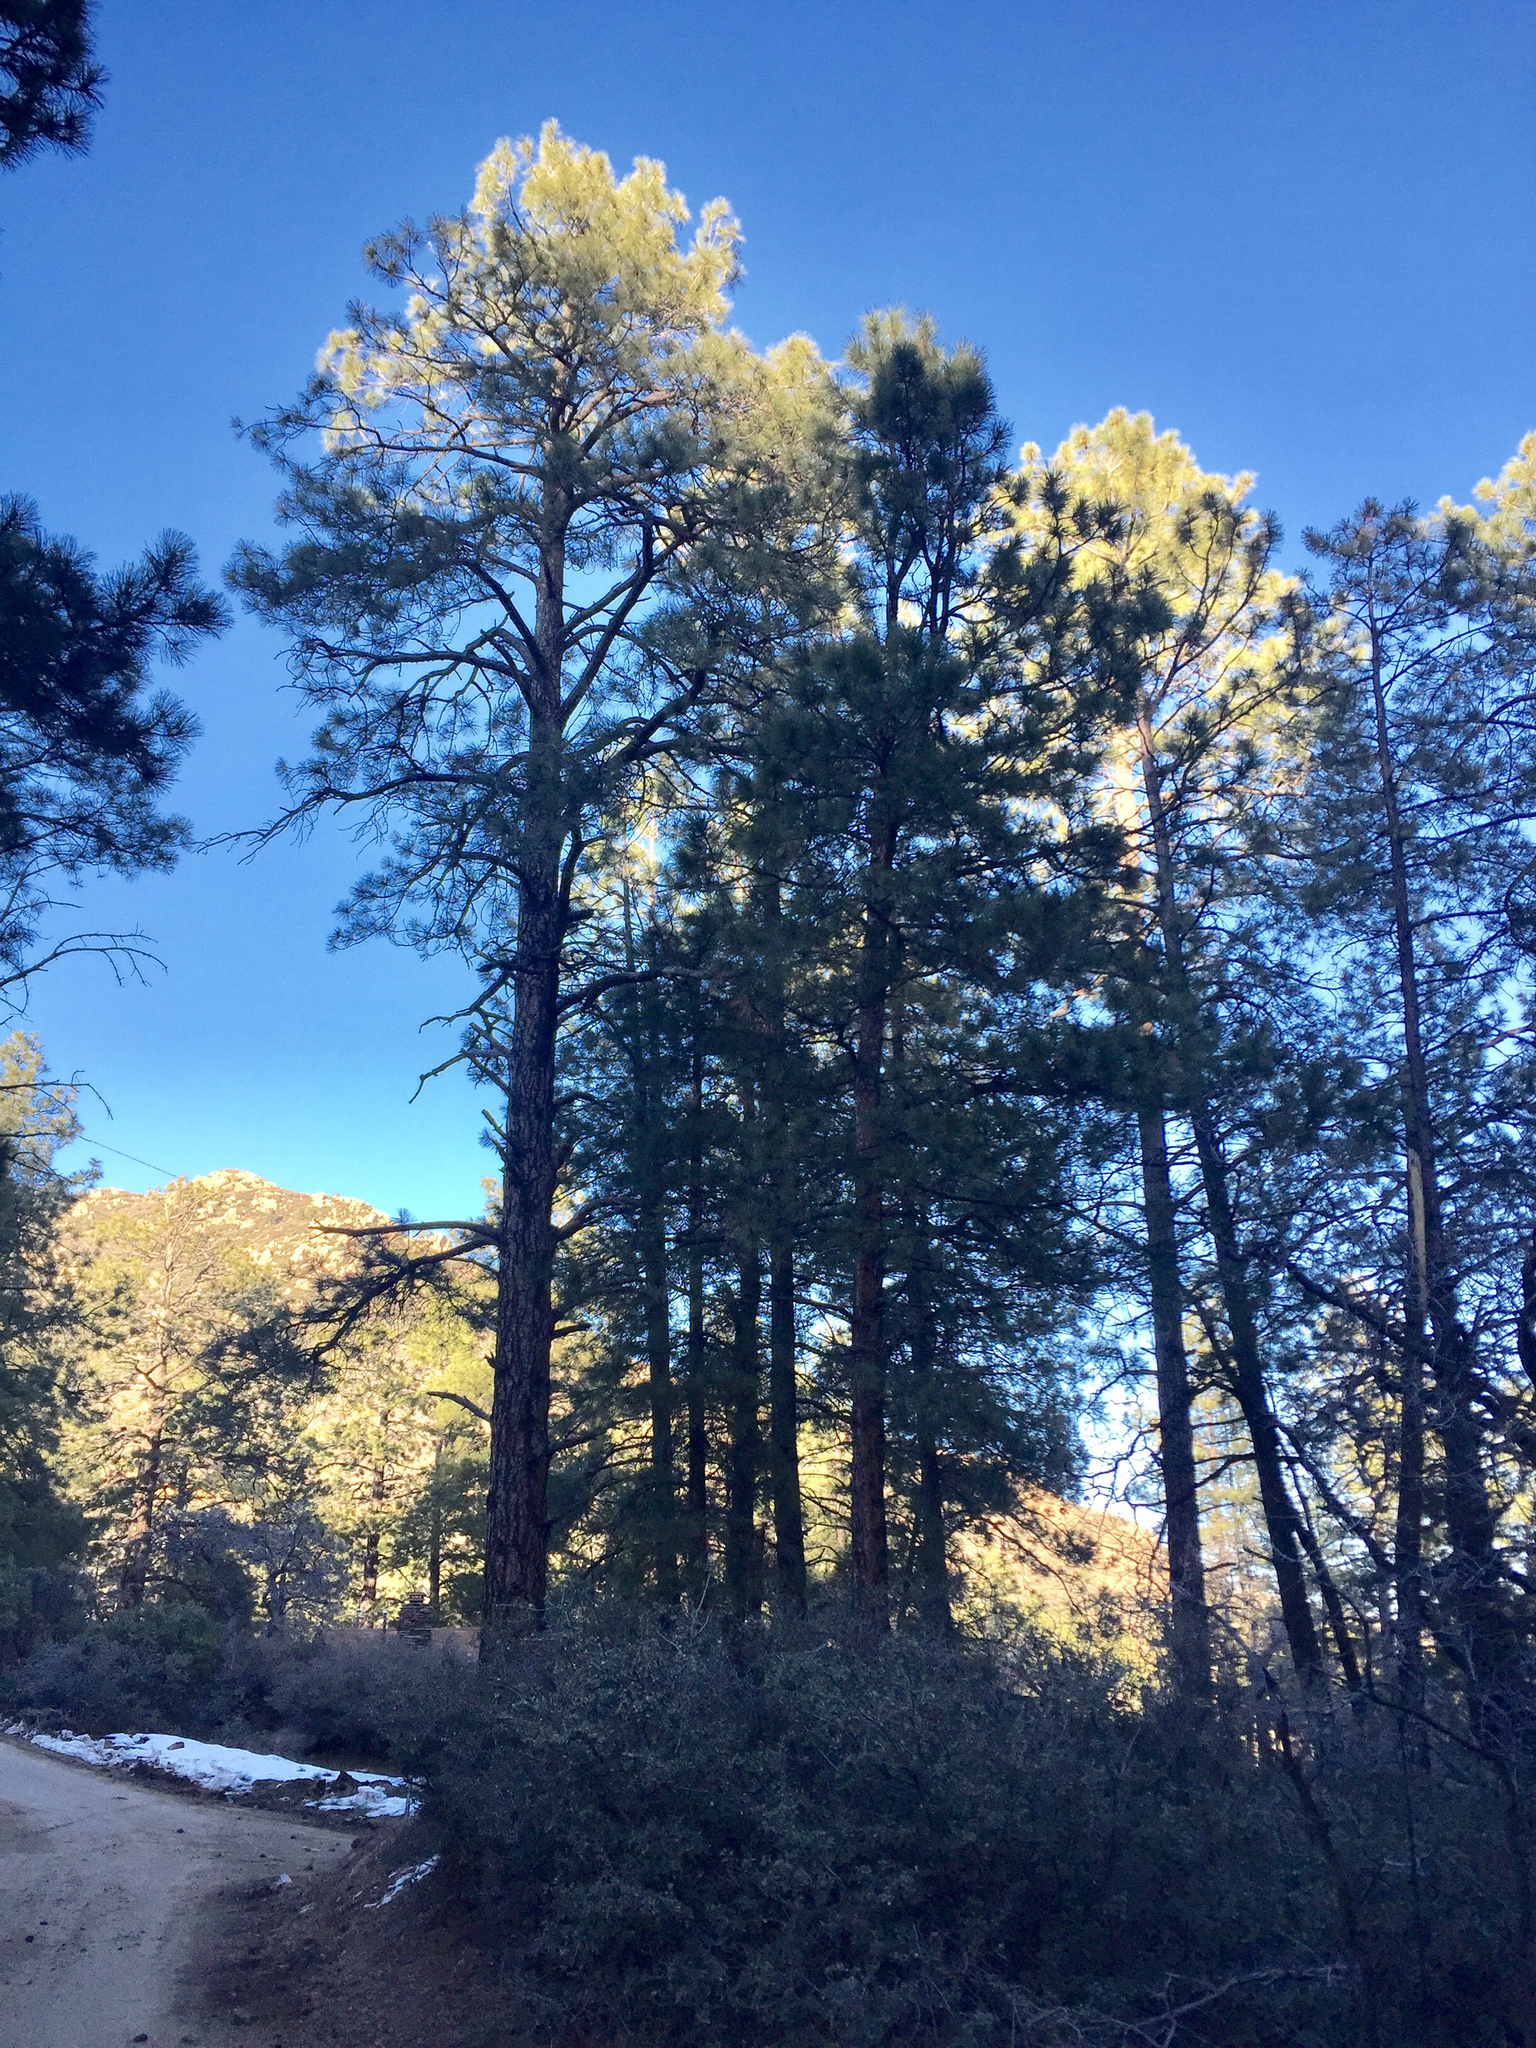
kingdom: Plantae
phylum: Tracheophyta
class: Pinopsida
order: Pinales
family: Pinaceae
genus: Pinus
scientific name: Pinus ponderosa
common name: Western yellow-pine
